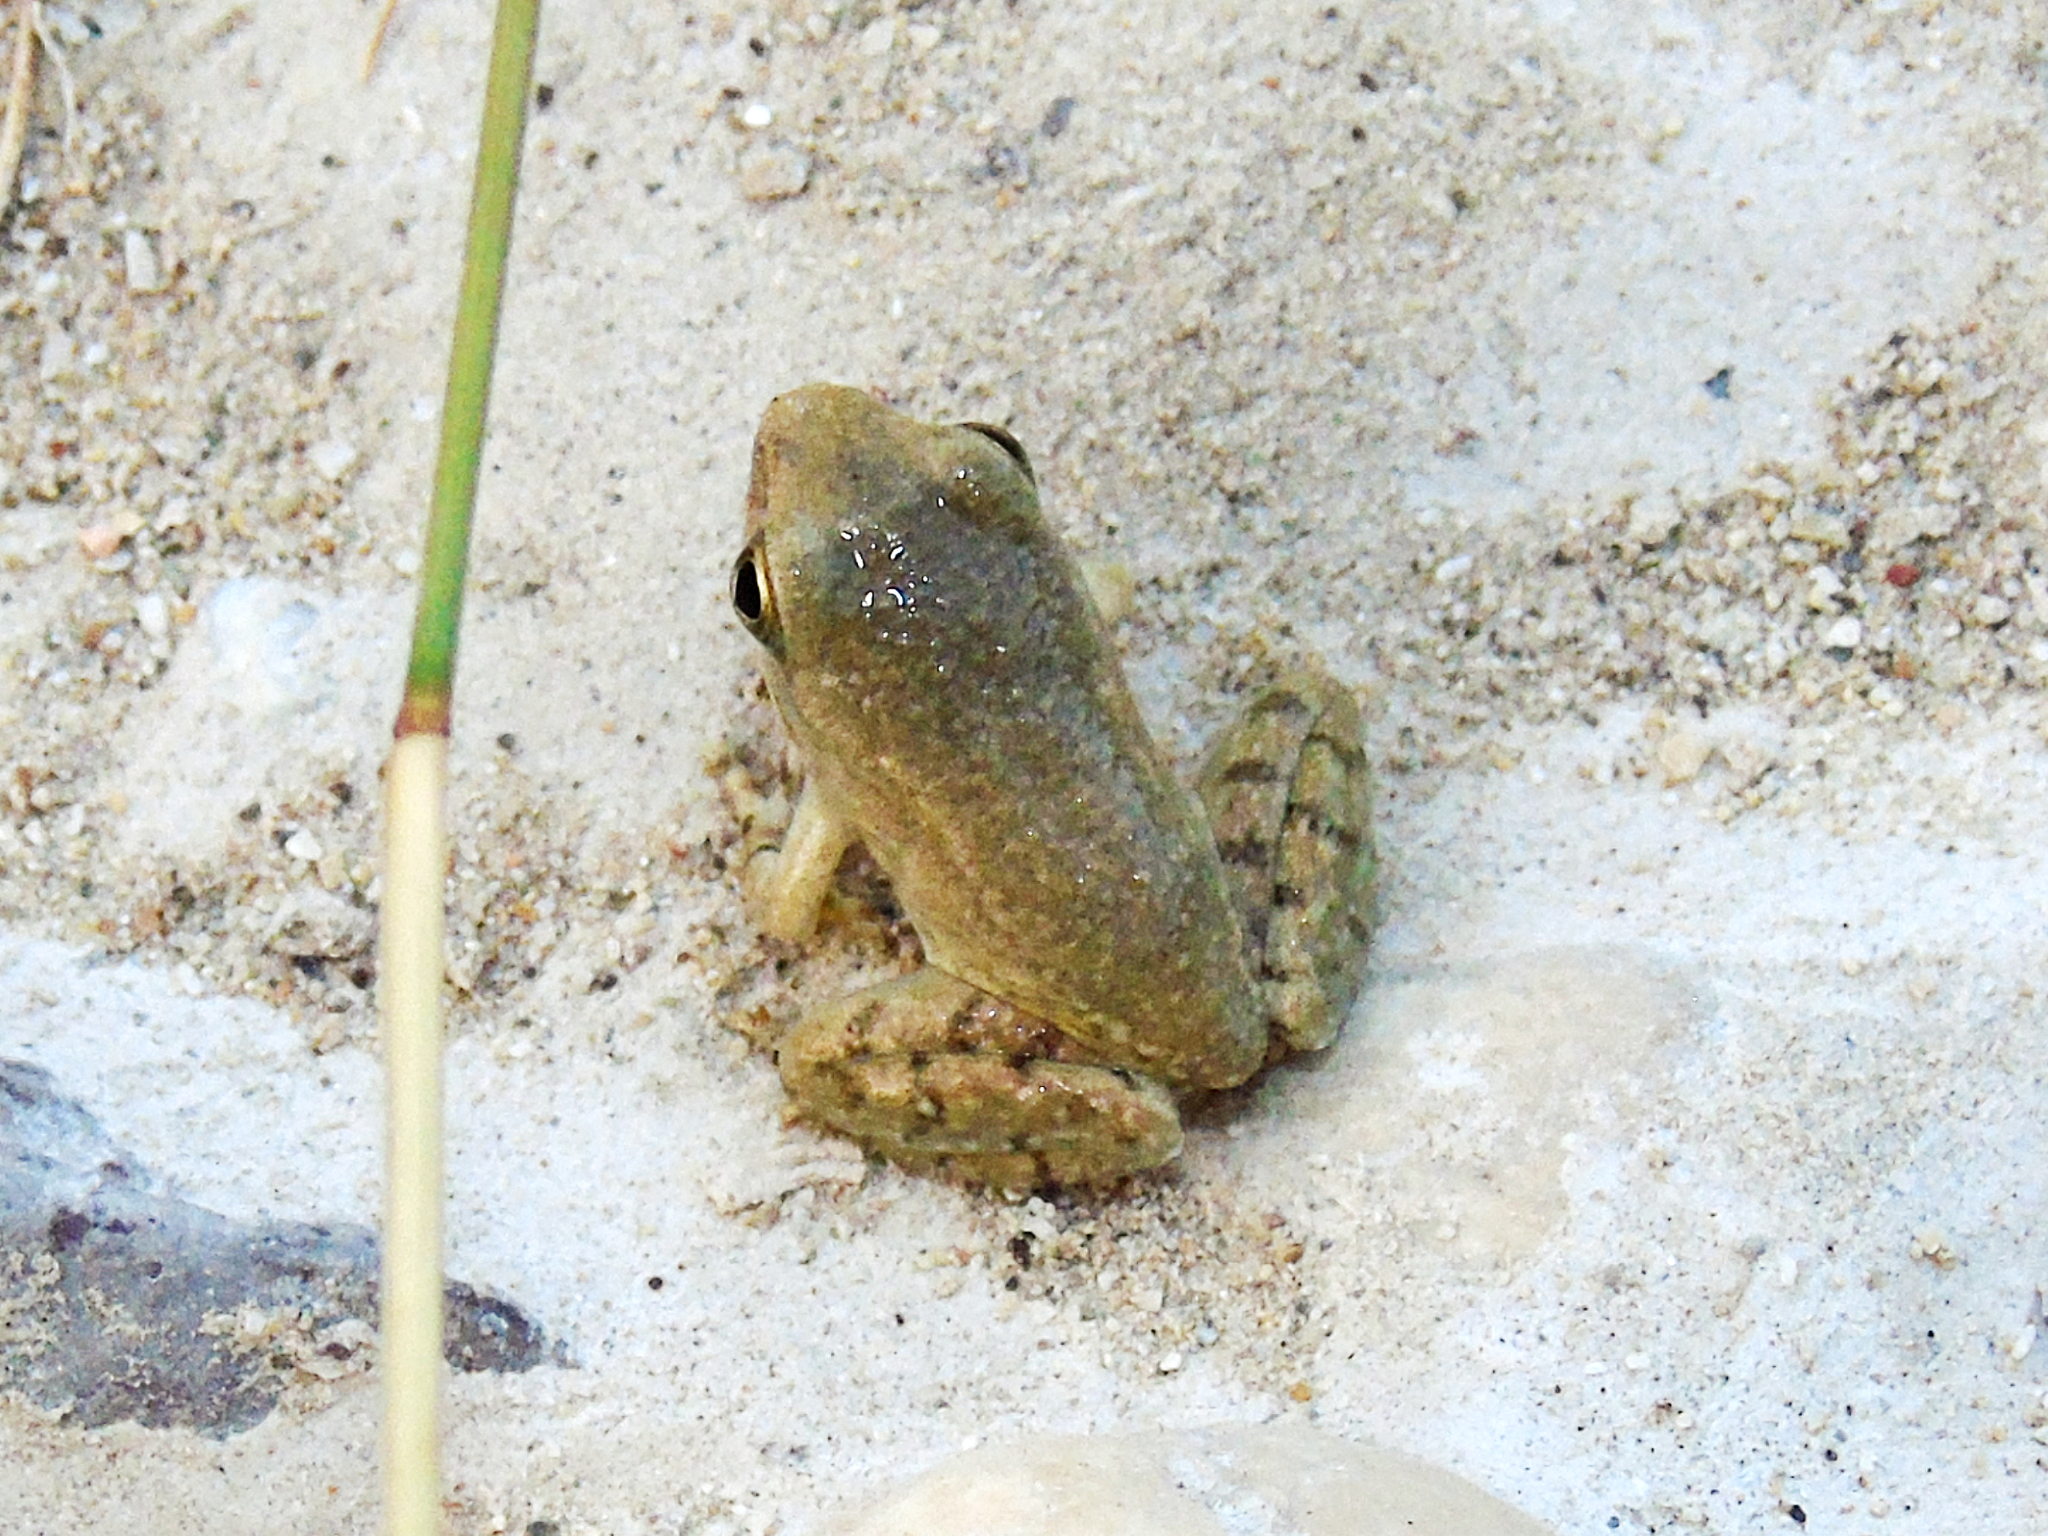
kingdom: Animalia
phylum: Chordata
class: Amphibia
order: Anura
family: Ranidae
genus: Rana
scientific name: Rana graeca
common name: Greek stream frog
